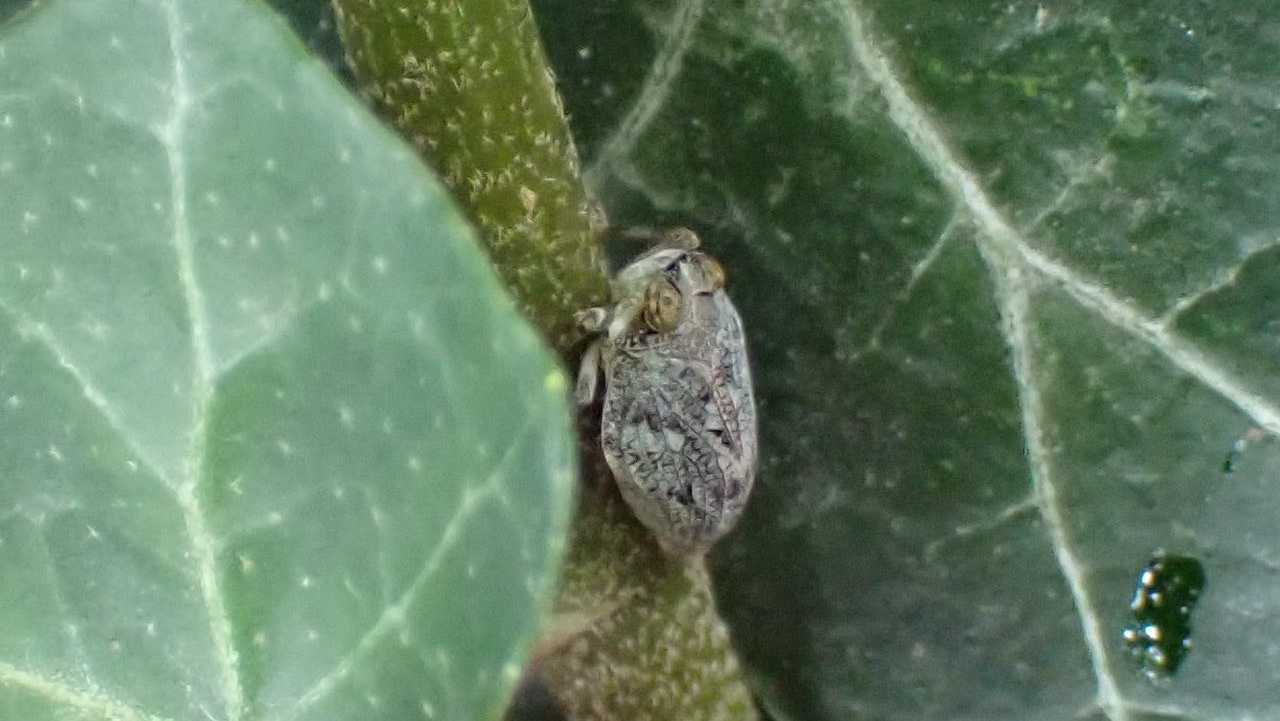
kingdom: Animalia
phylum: Arthropoda
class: Insecta
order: Hemiptera
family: Issidae
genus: Issus
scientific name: Issus coleoptratus
